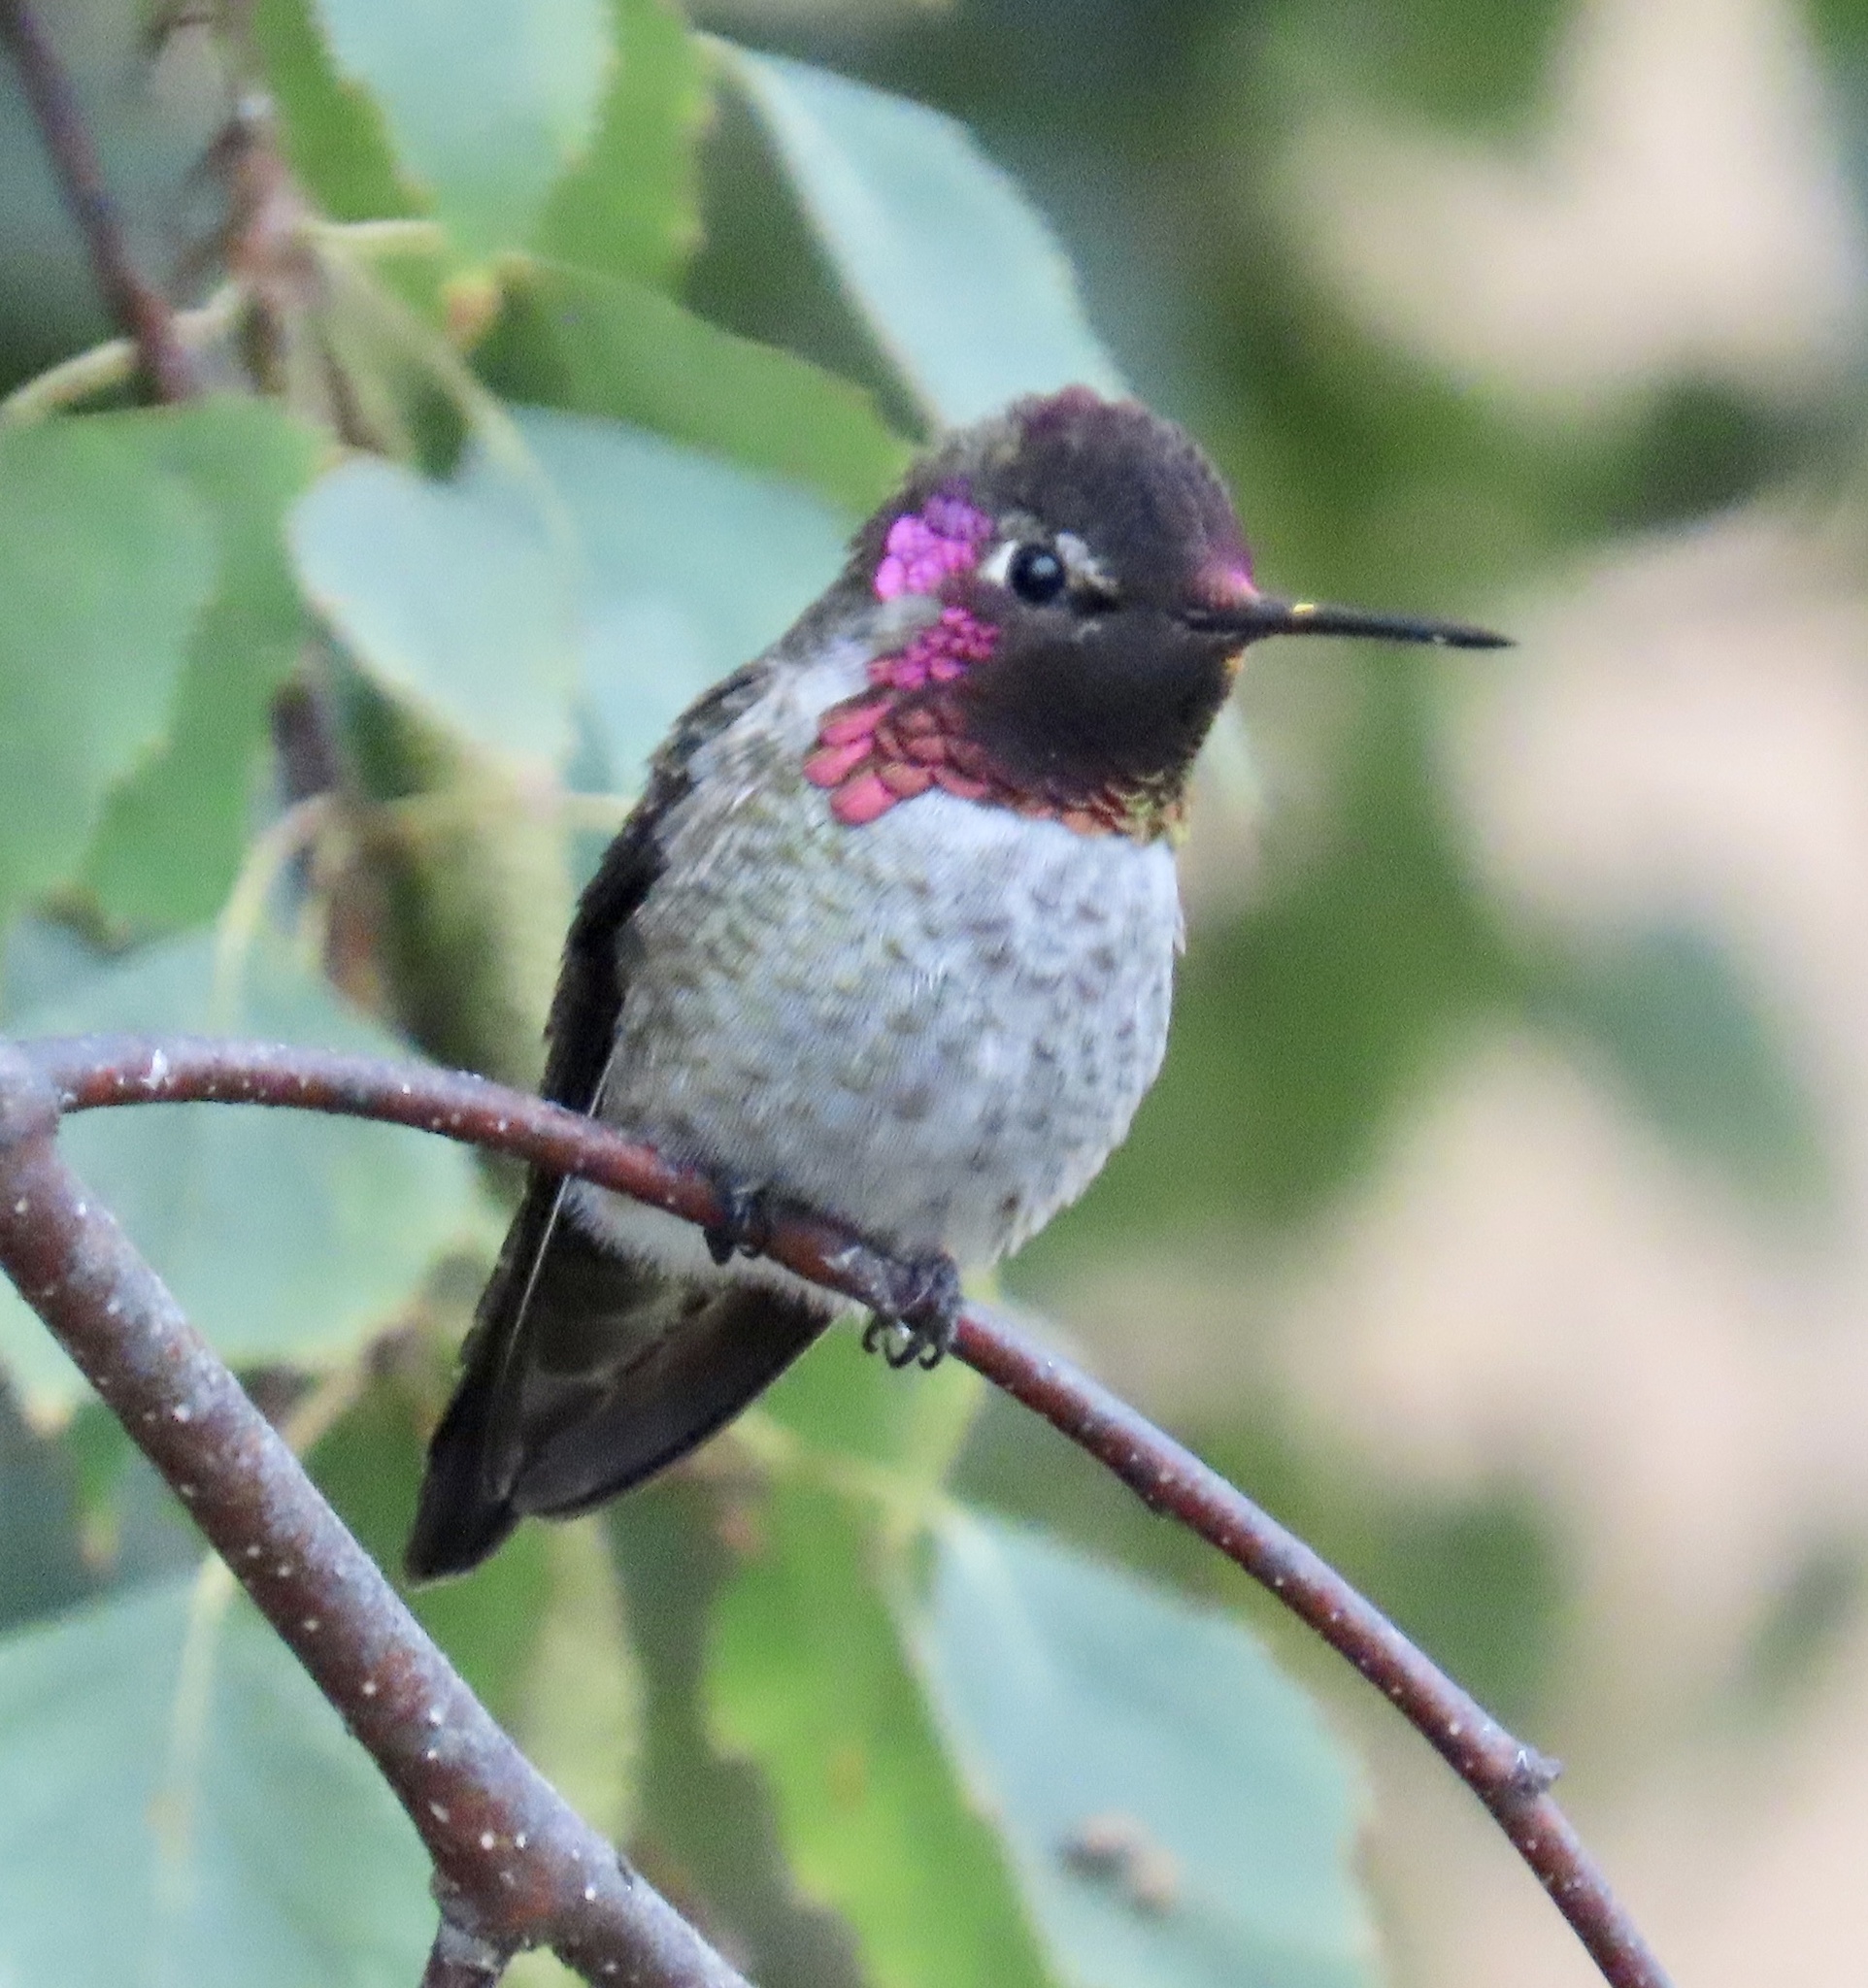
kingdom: Animalia
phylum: Chordata
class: Aves
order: Apodiformes
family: Trochilidae
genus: Calypte
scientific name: Calypte anna
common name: Anna's hummingbird
